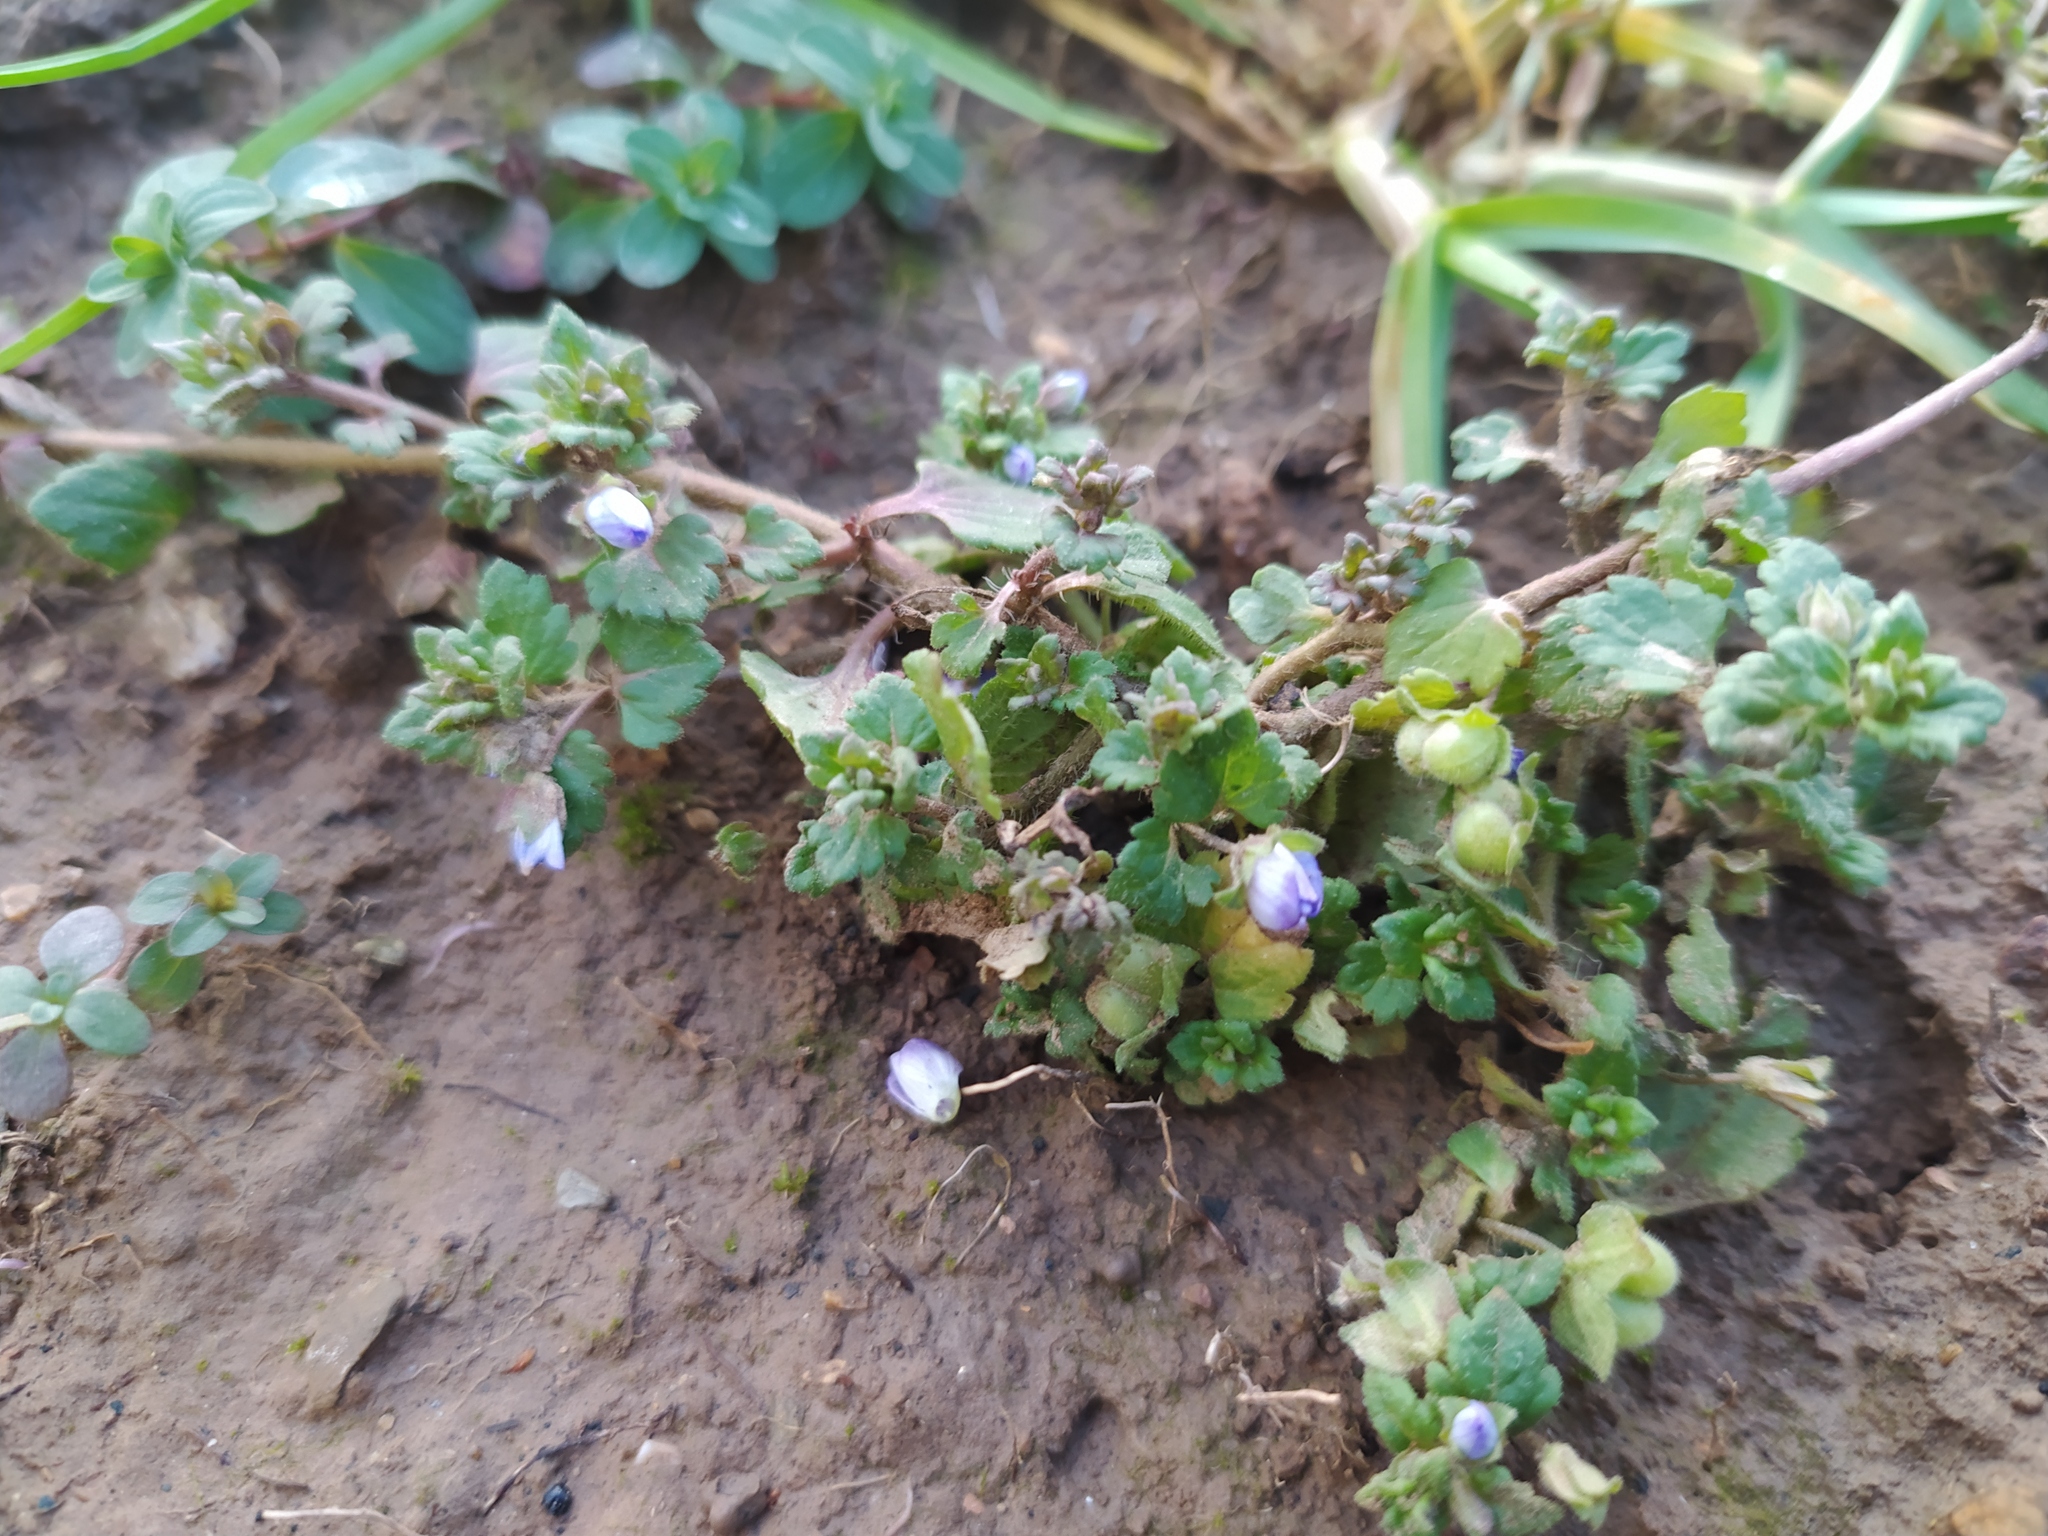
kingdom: Plantae
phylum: Tracheophyta
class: Magnoliopsida
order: Lamiales
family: Plantaginaceae
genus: Veronica
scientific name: Veronica polita
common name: Grey field-speedwell
